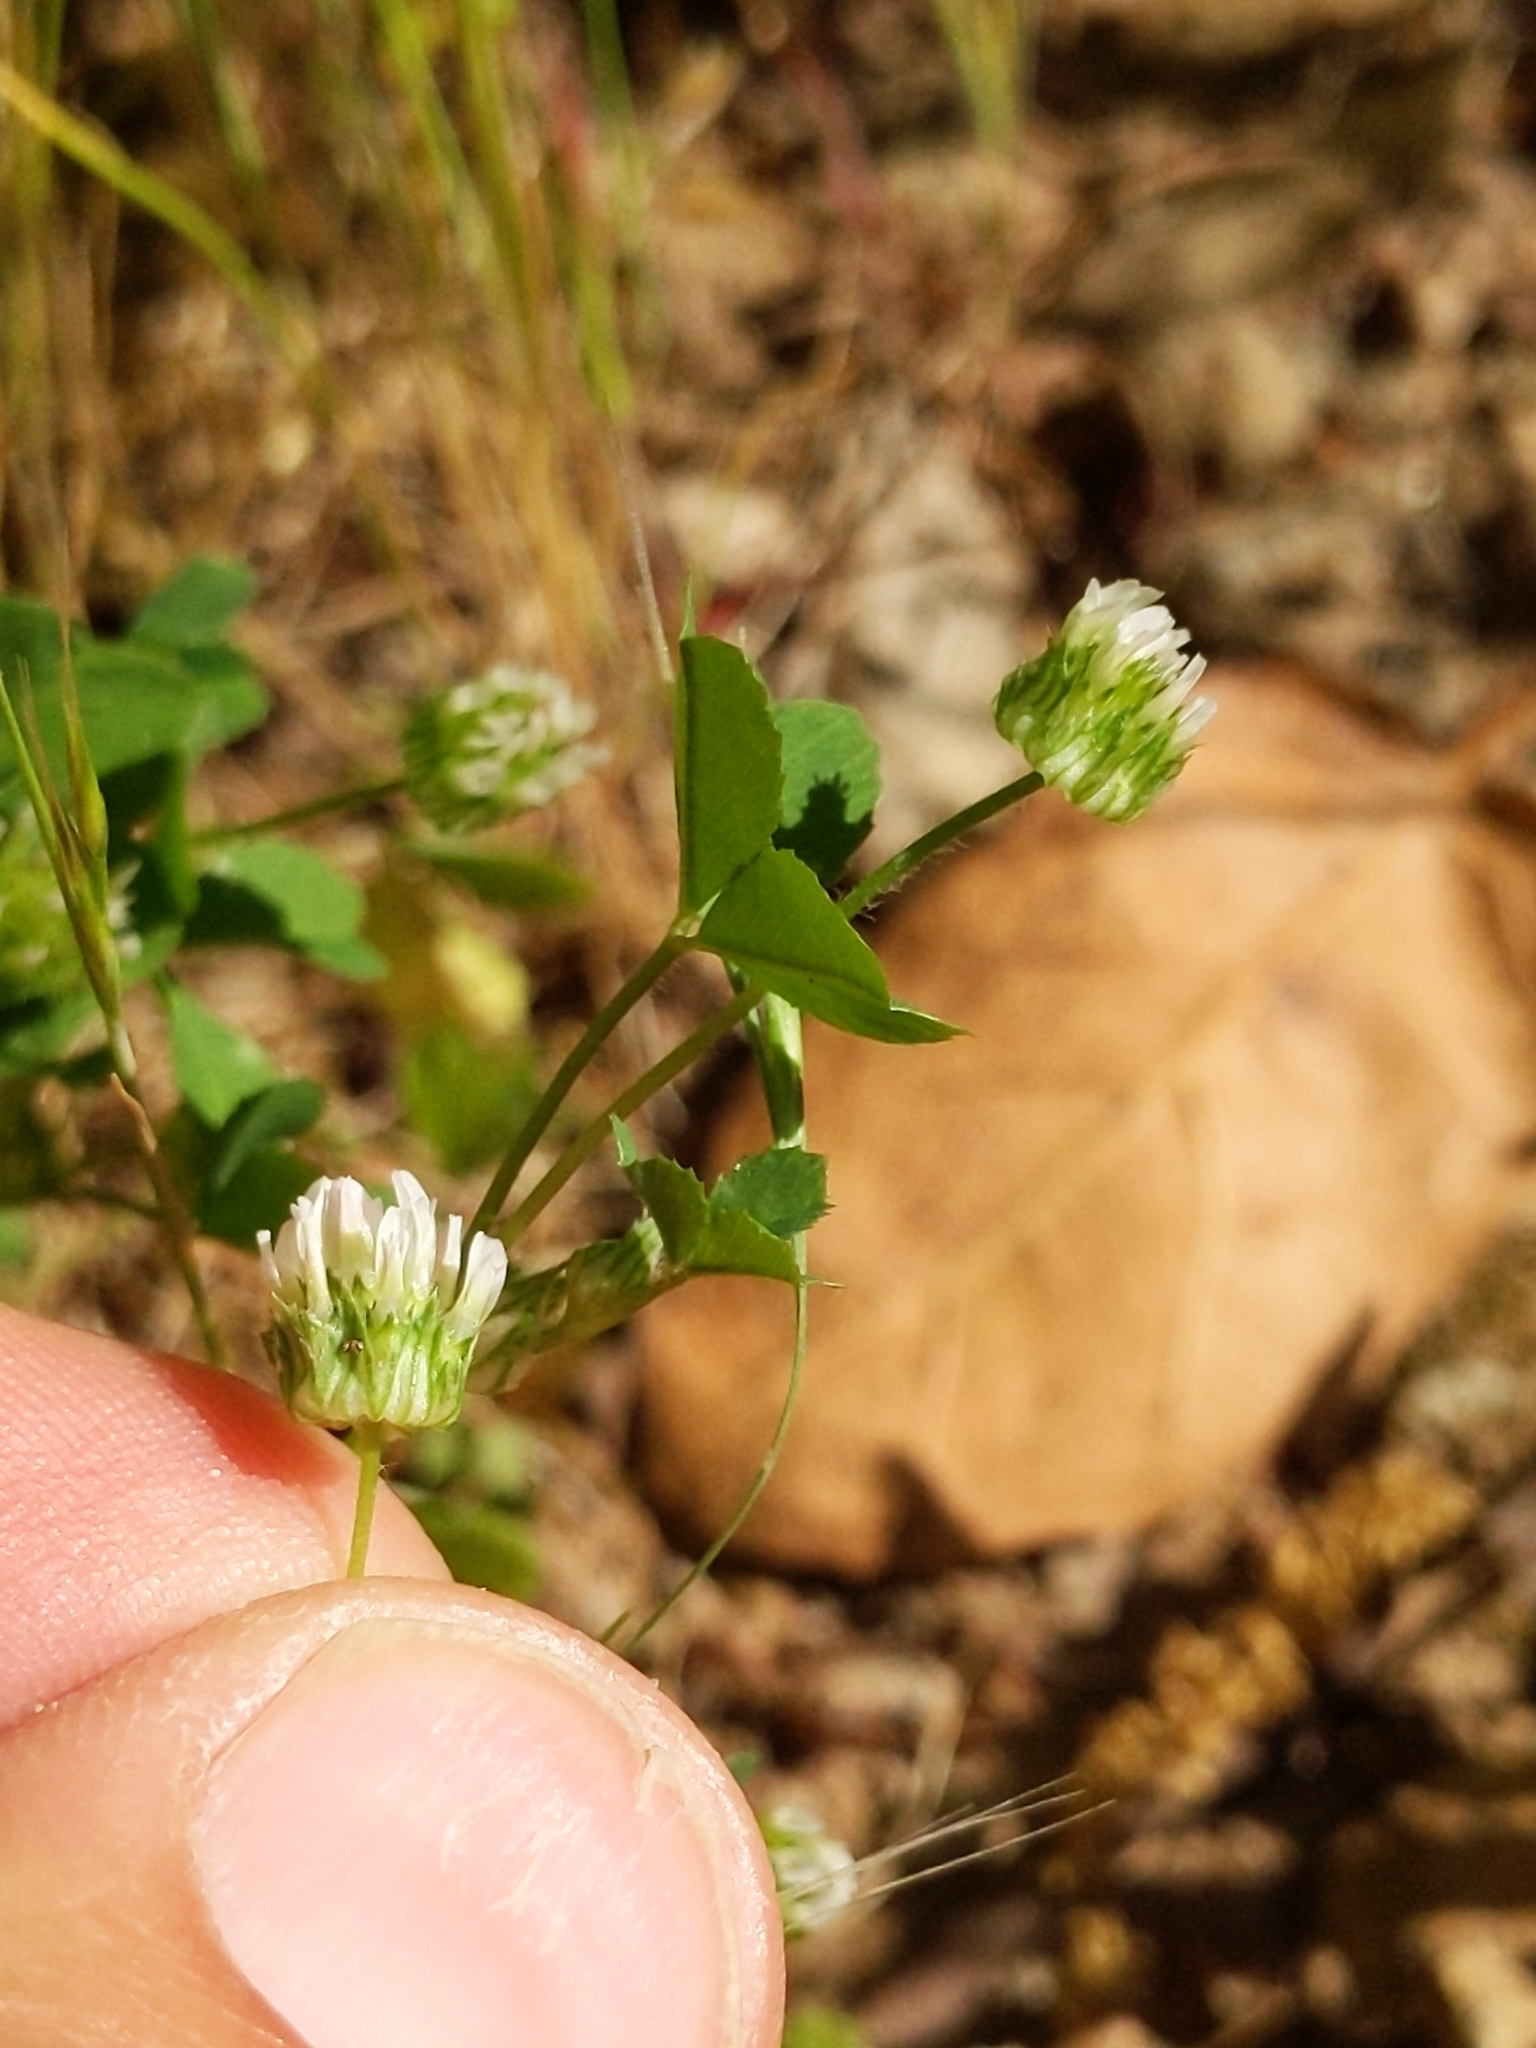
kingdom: Plantae
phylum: Tracheophyta
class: Magnoliopsida
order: Fabales
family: Fabaceae
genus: Trifolium
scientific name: Trifolium microdon
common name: Thimble clover
